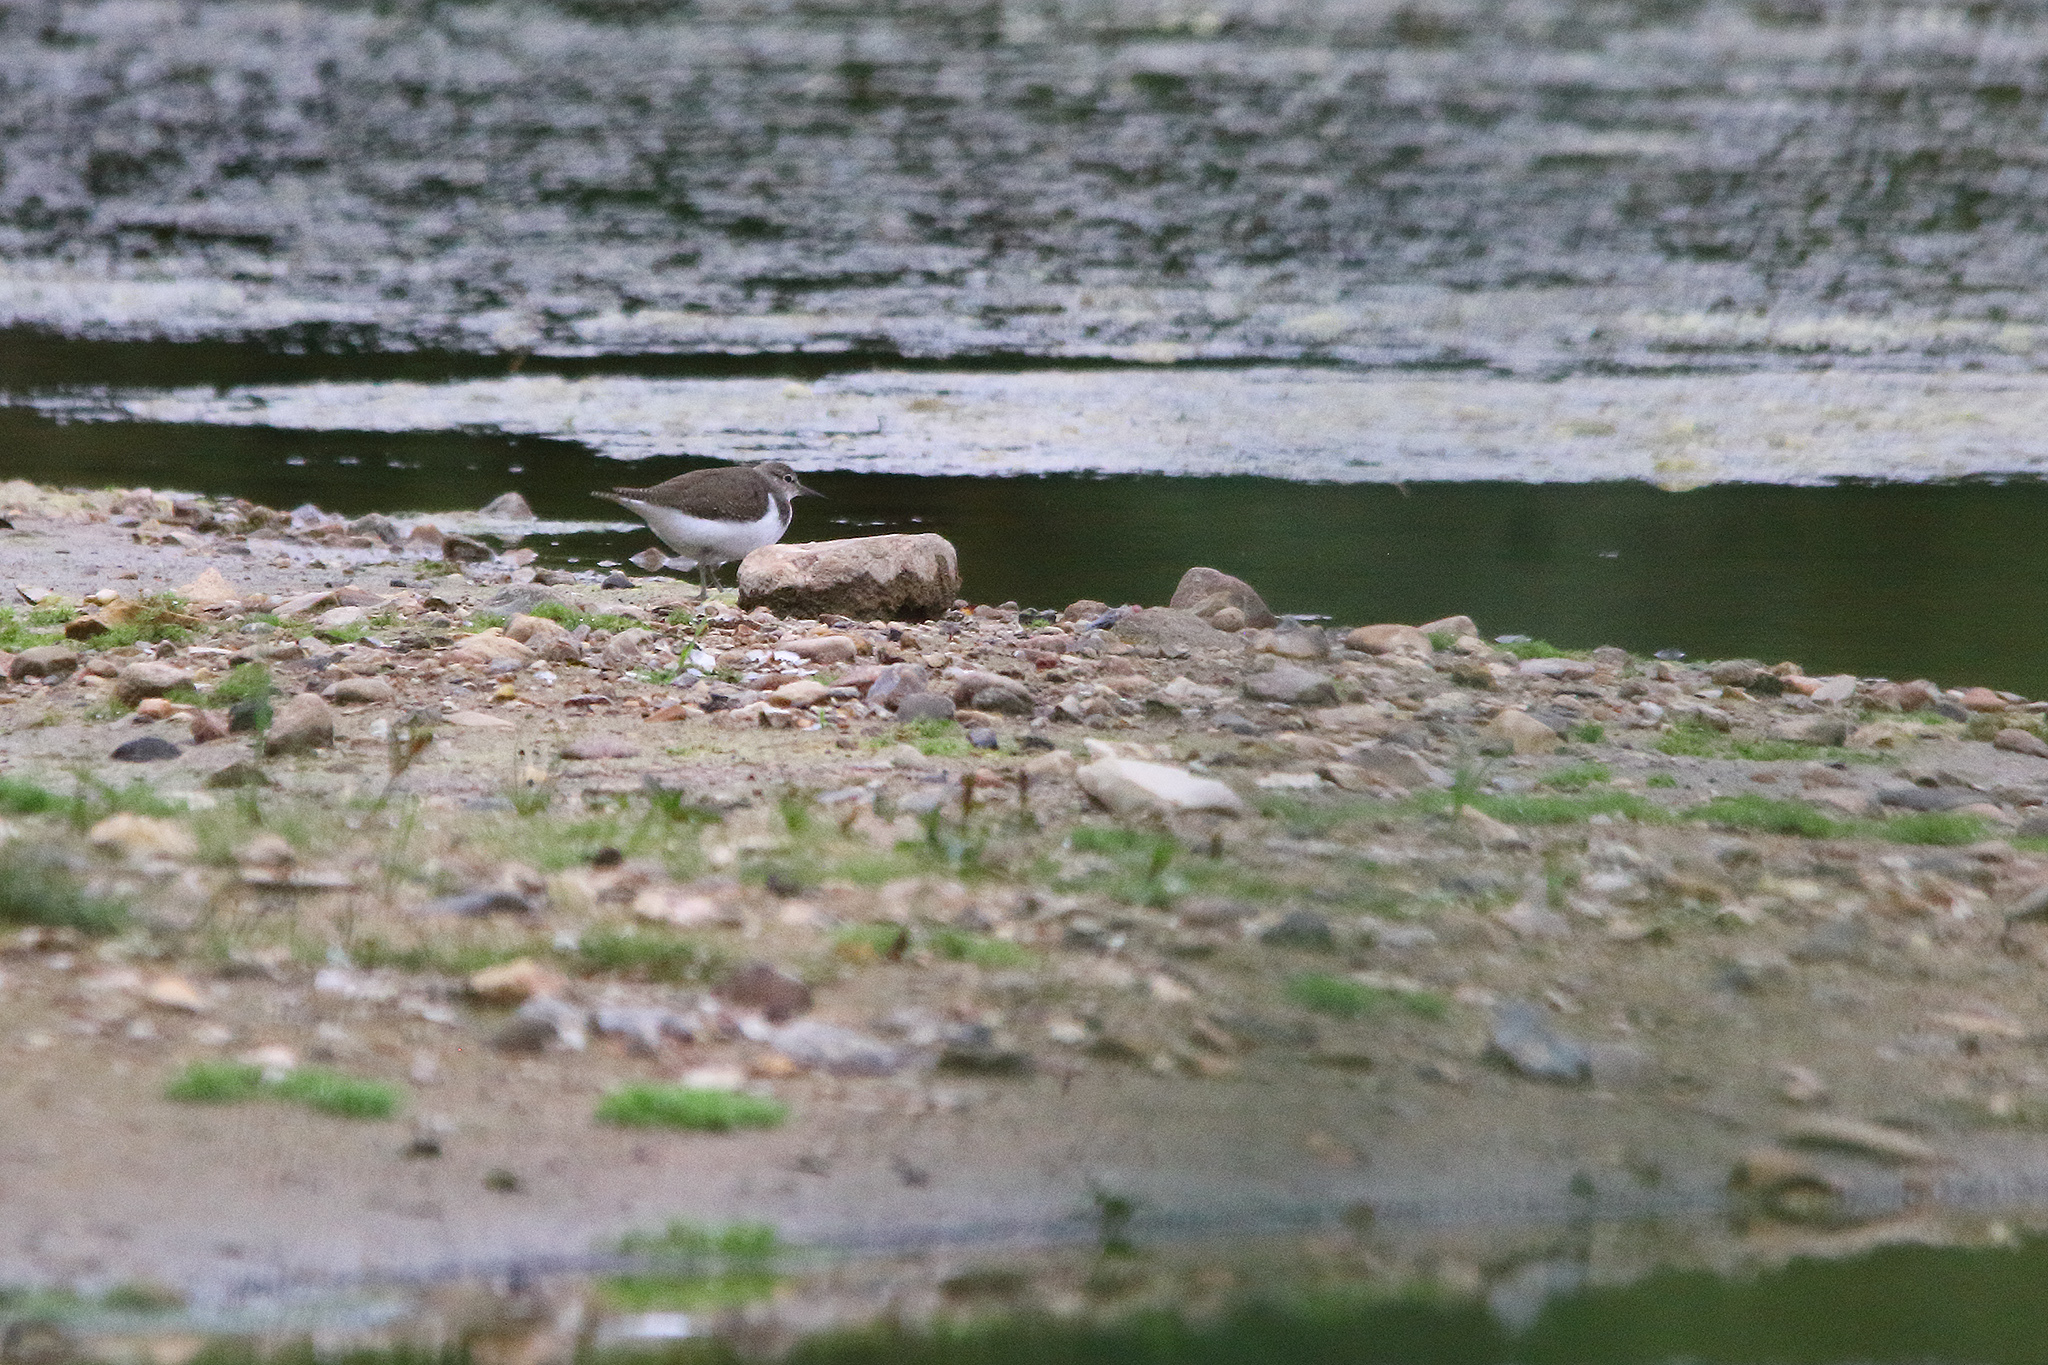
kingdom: Animalia
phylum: Chordata
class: Aves
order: Charadriiformes
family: Scolopacidae
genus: Actitis
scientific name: Actitis hypoleucos
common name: Common sandpiper
